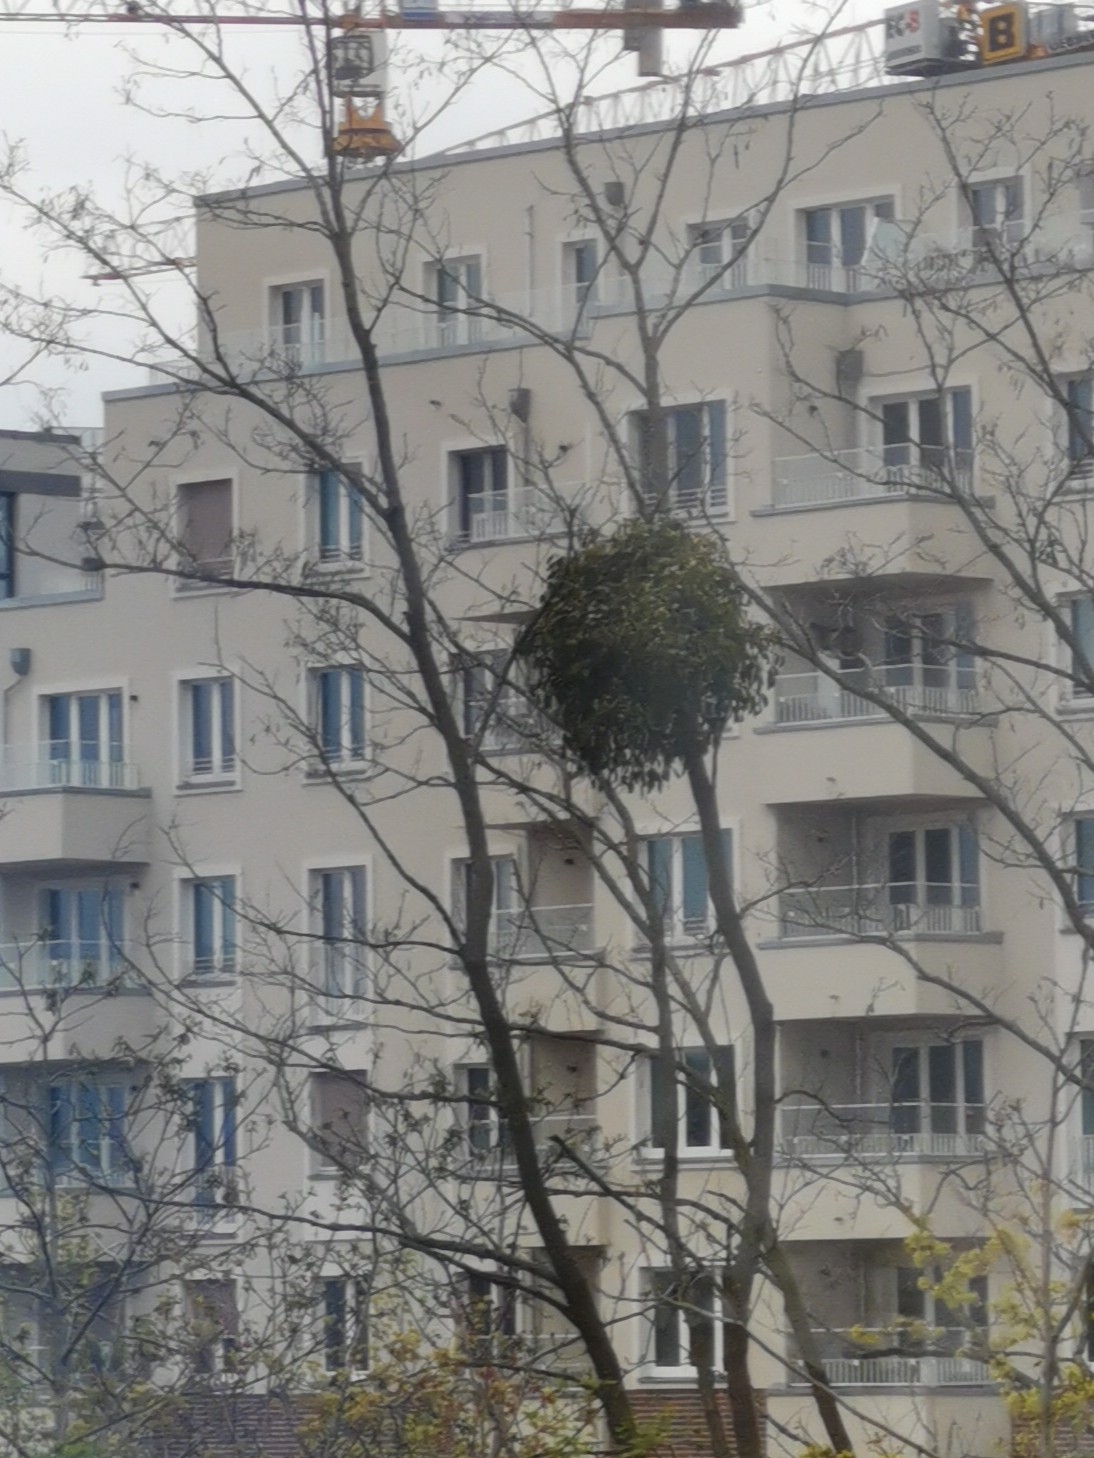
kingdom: Plantae
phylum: Tracheophyta
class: Magnoliopsida
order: Santalales
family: Viscaceae
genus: Viscum
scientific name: Viscum album
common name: Mistletoe
